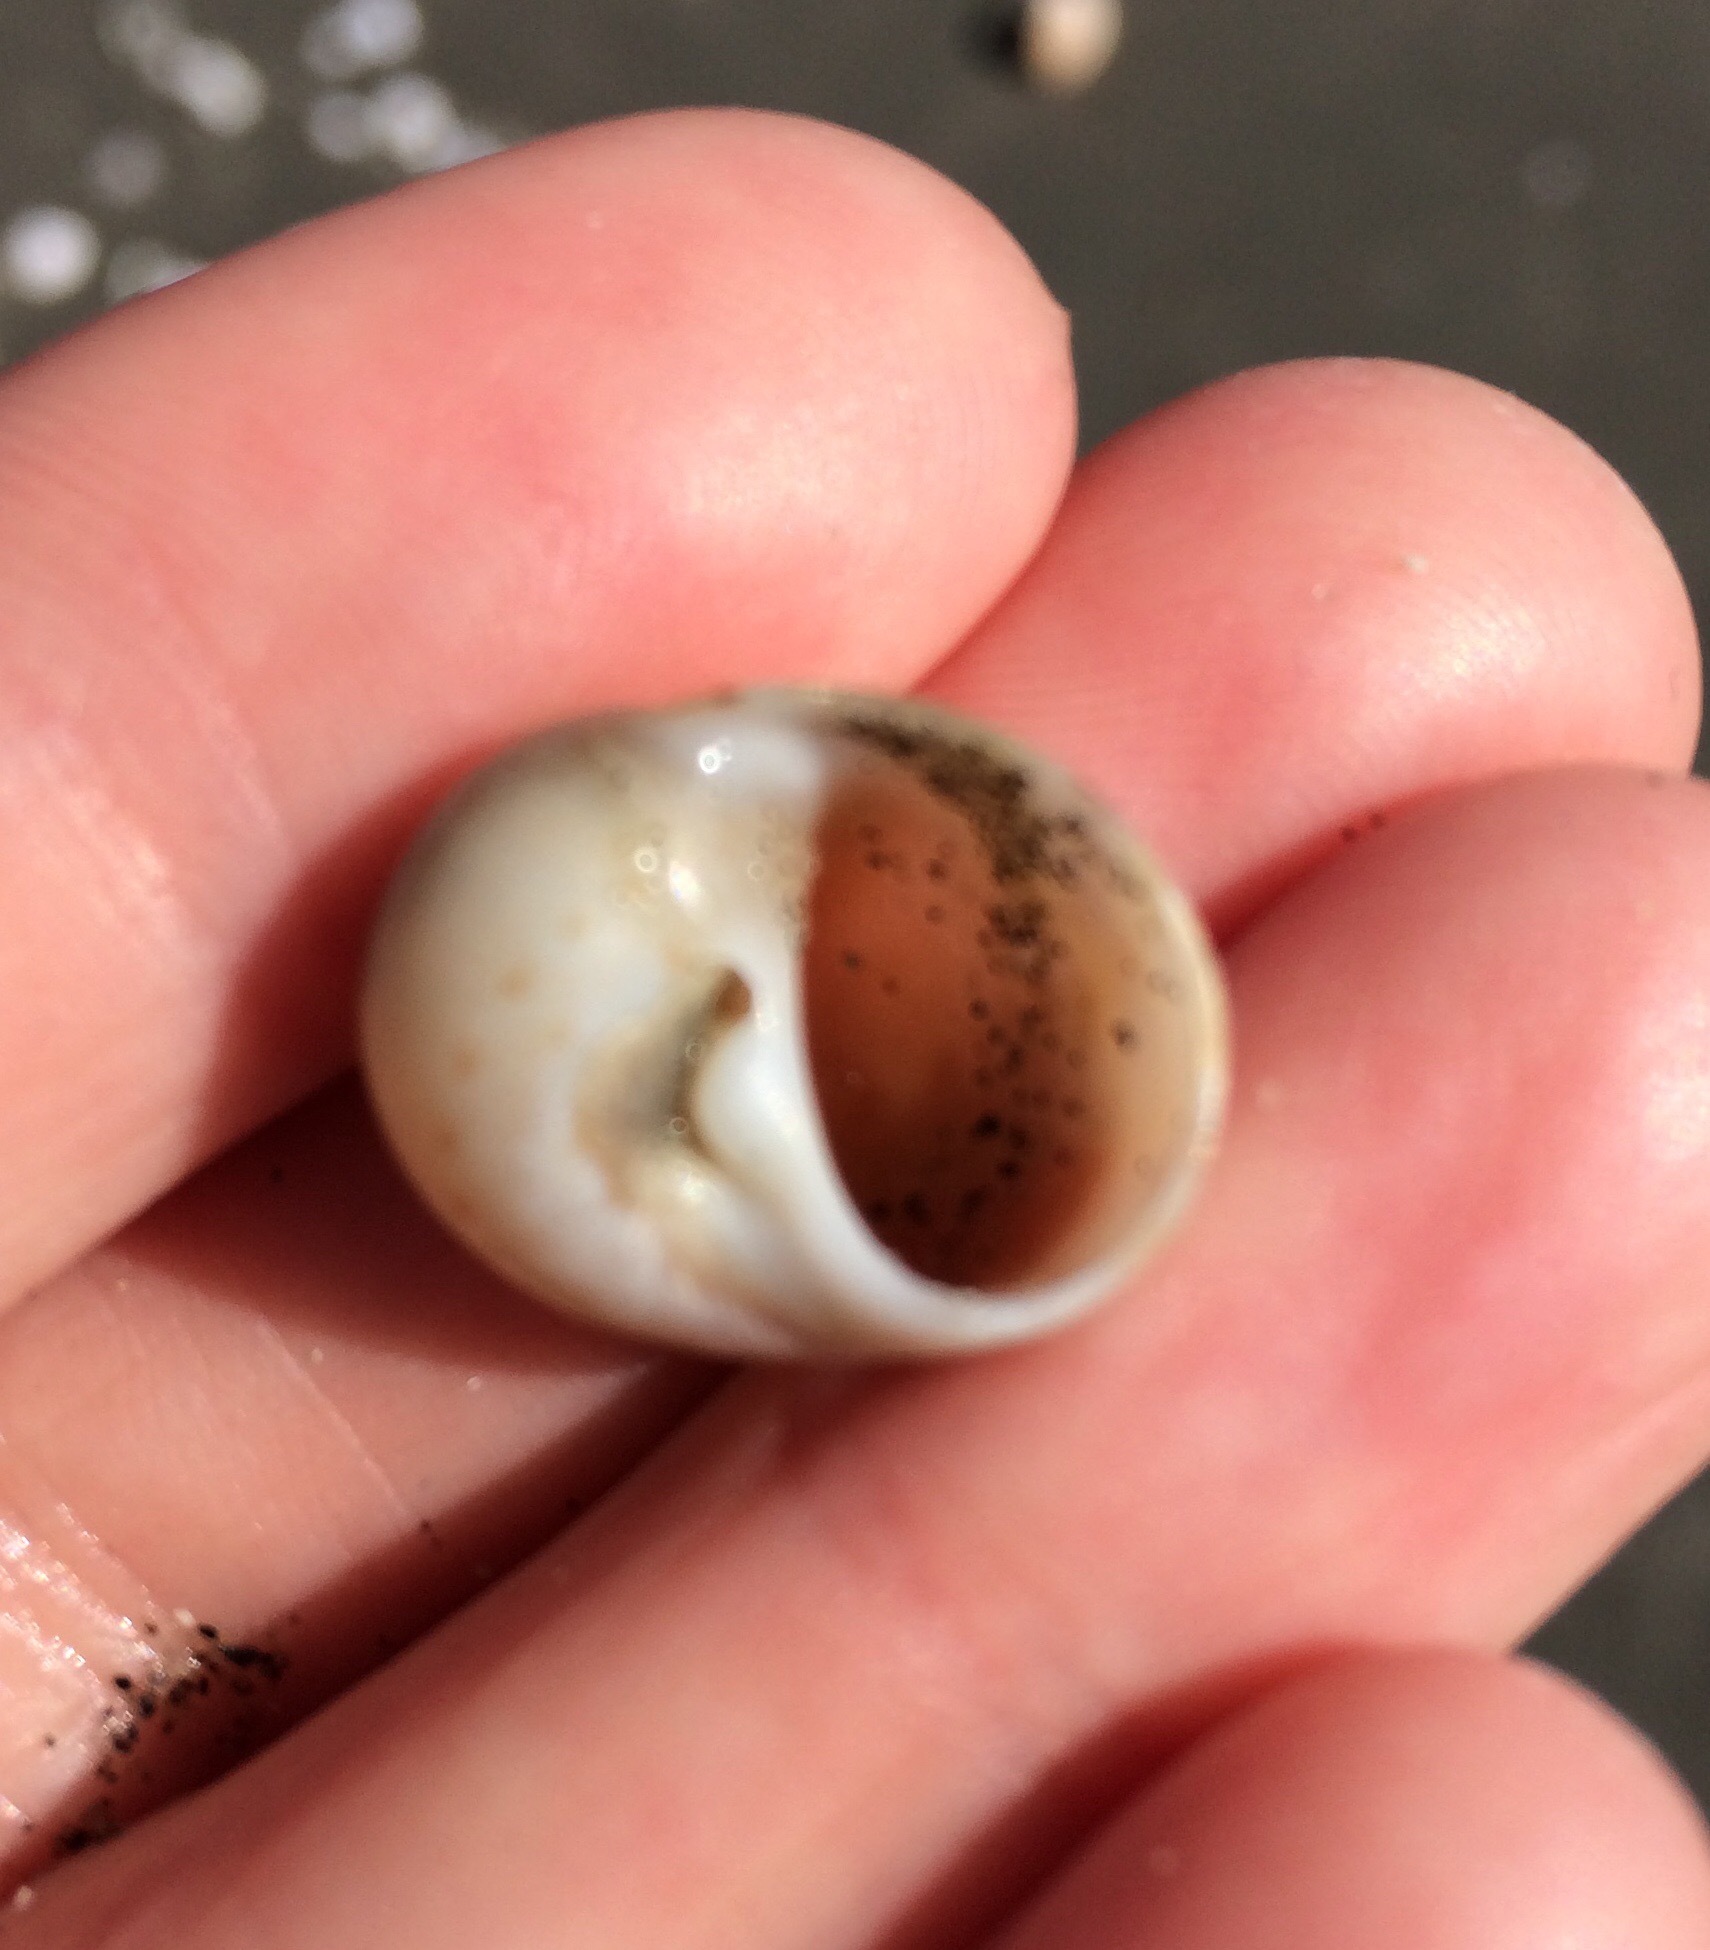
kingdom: Animalia
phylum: Mollusca
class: Gastropoda
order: Littorinimorpha
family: Naticidae
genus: Tanea
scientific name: Tanea zelandica
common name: New zealand moonsnail
